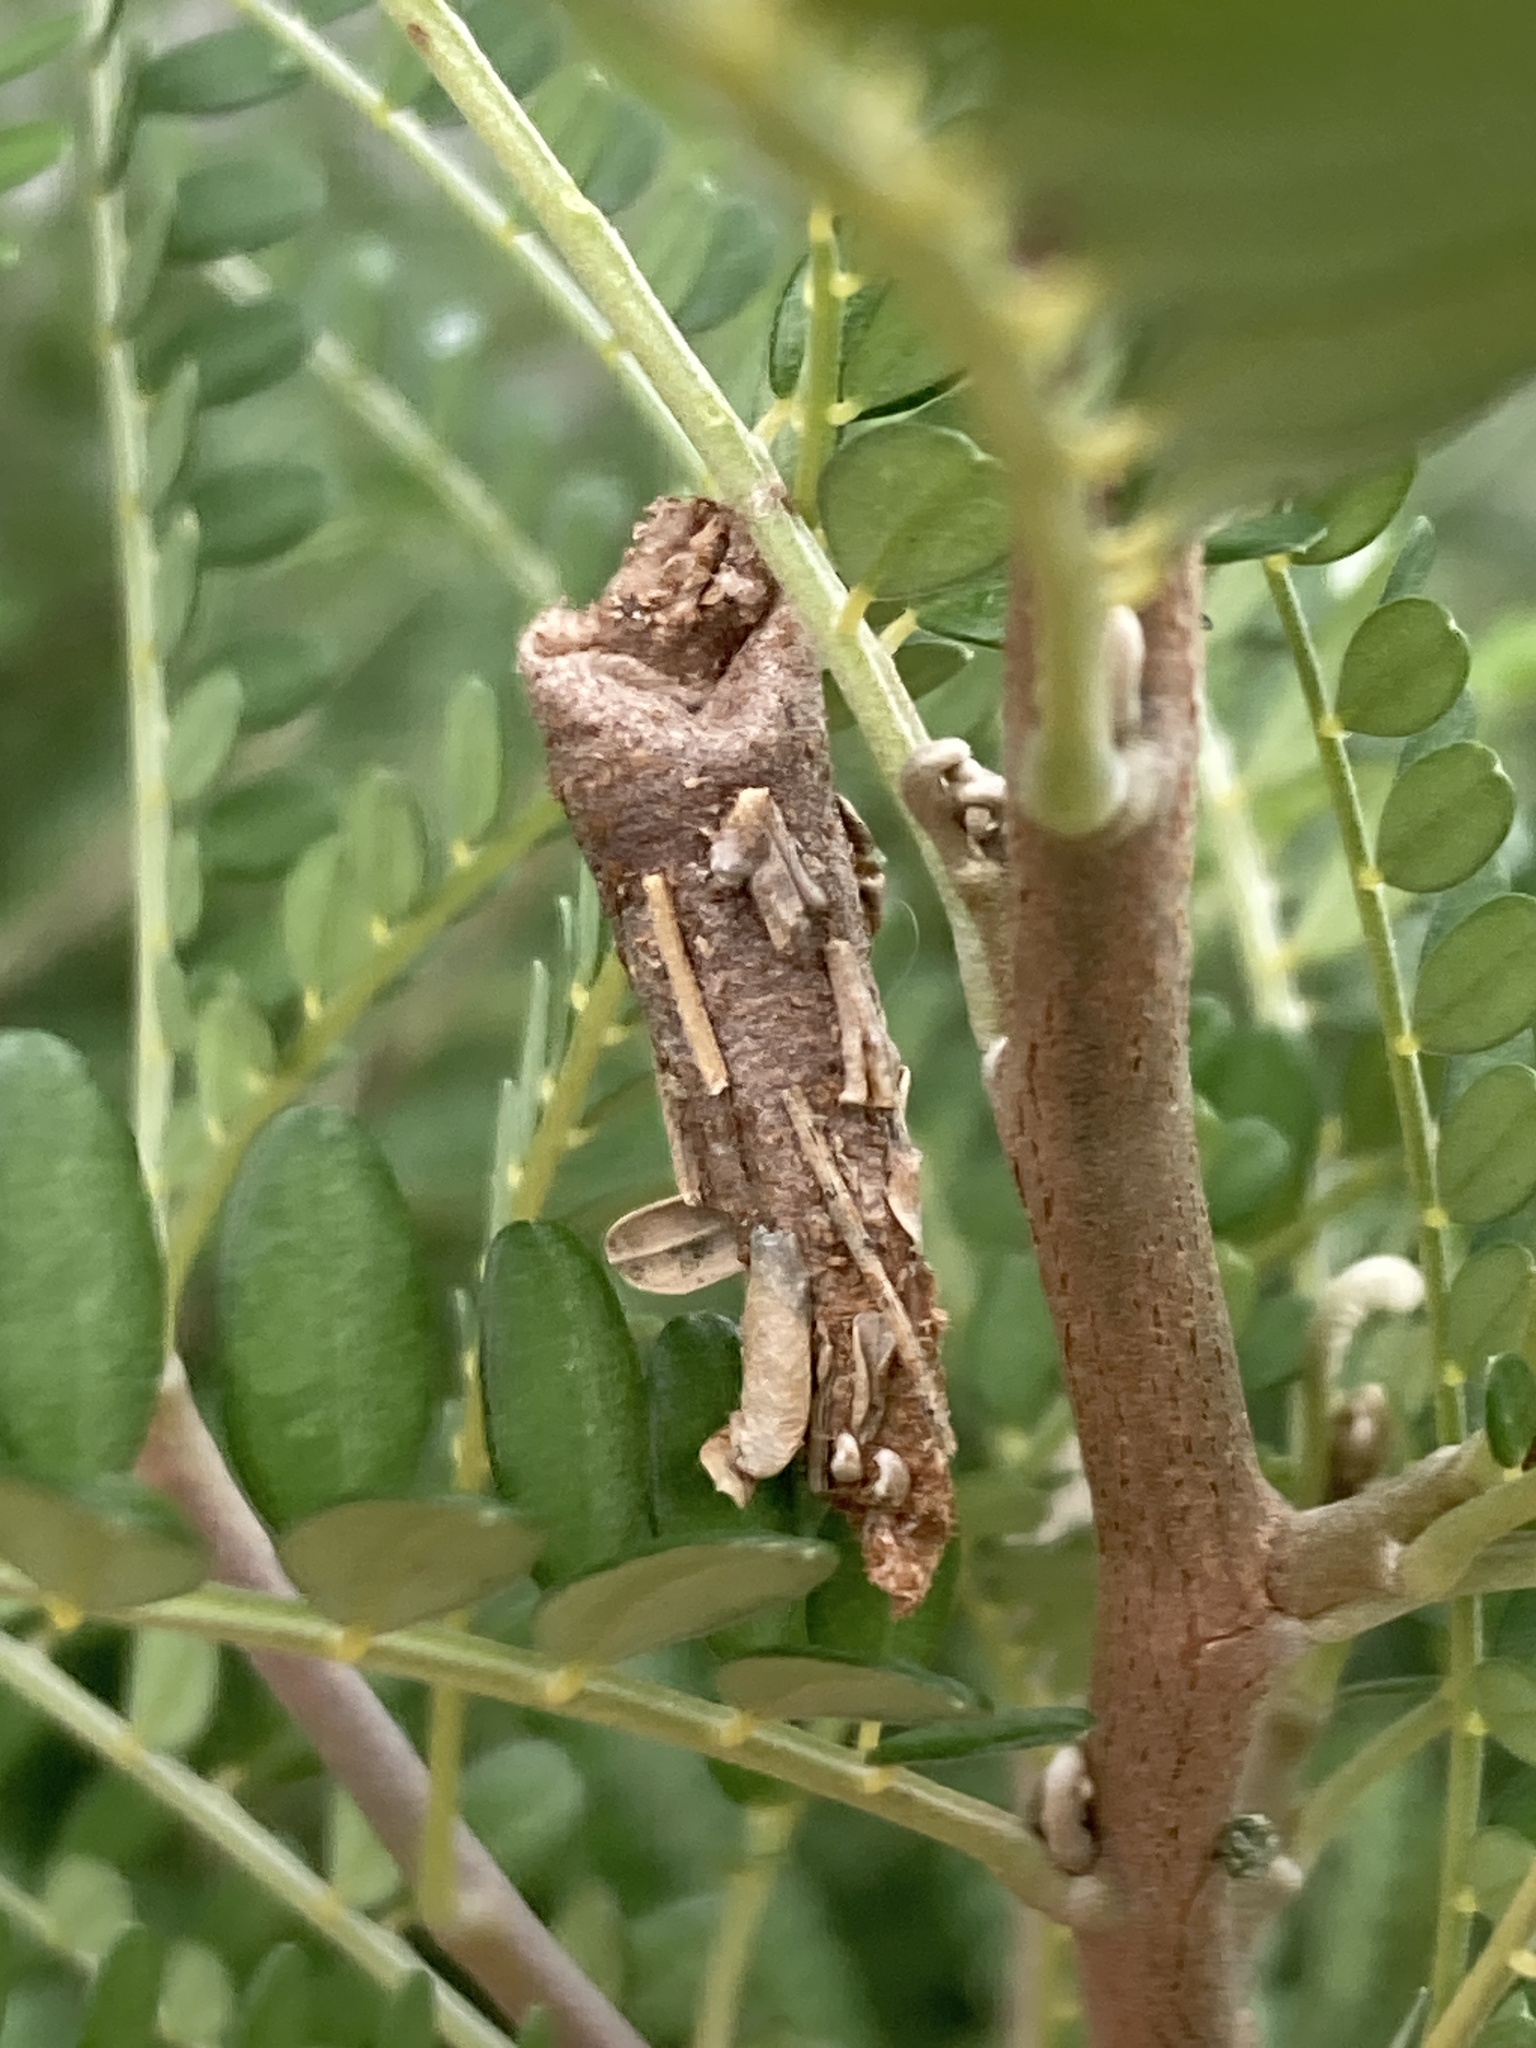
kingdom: Animalia
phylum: Arthropoda
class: Insecta
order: Lepidoptera
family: Psychidae
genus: Liothula
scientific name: Liothula omnivora
